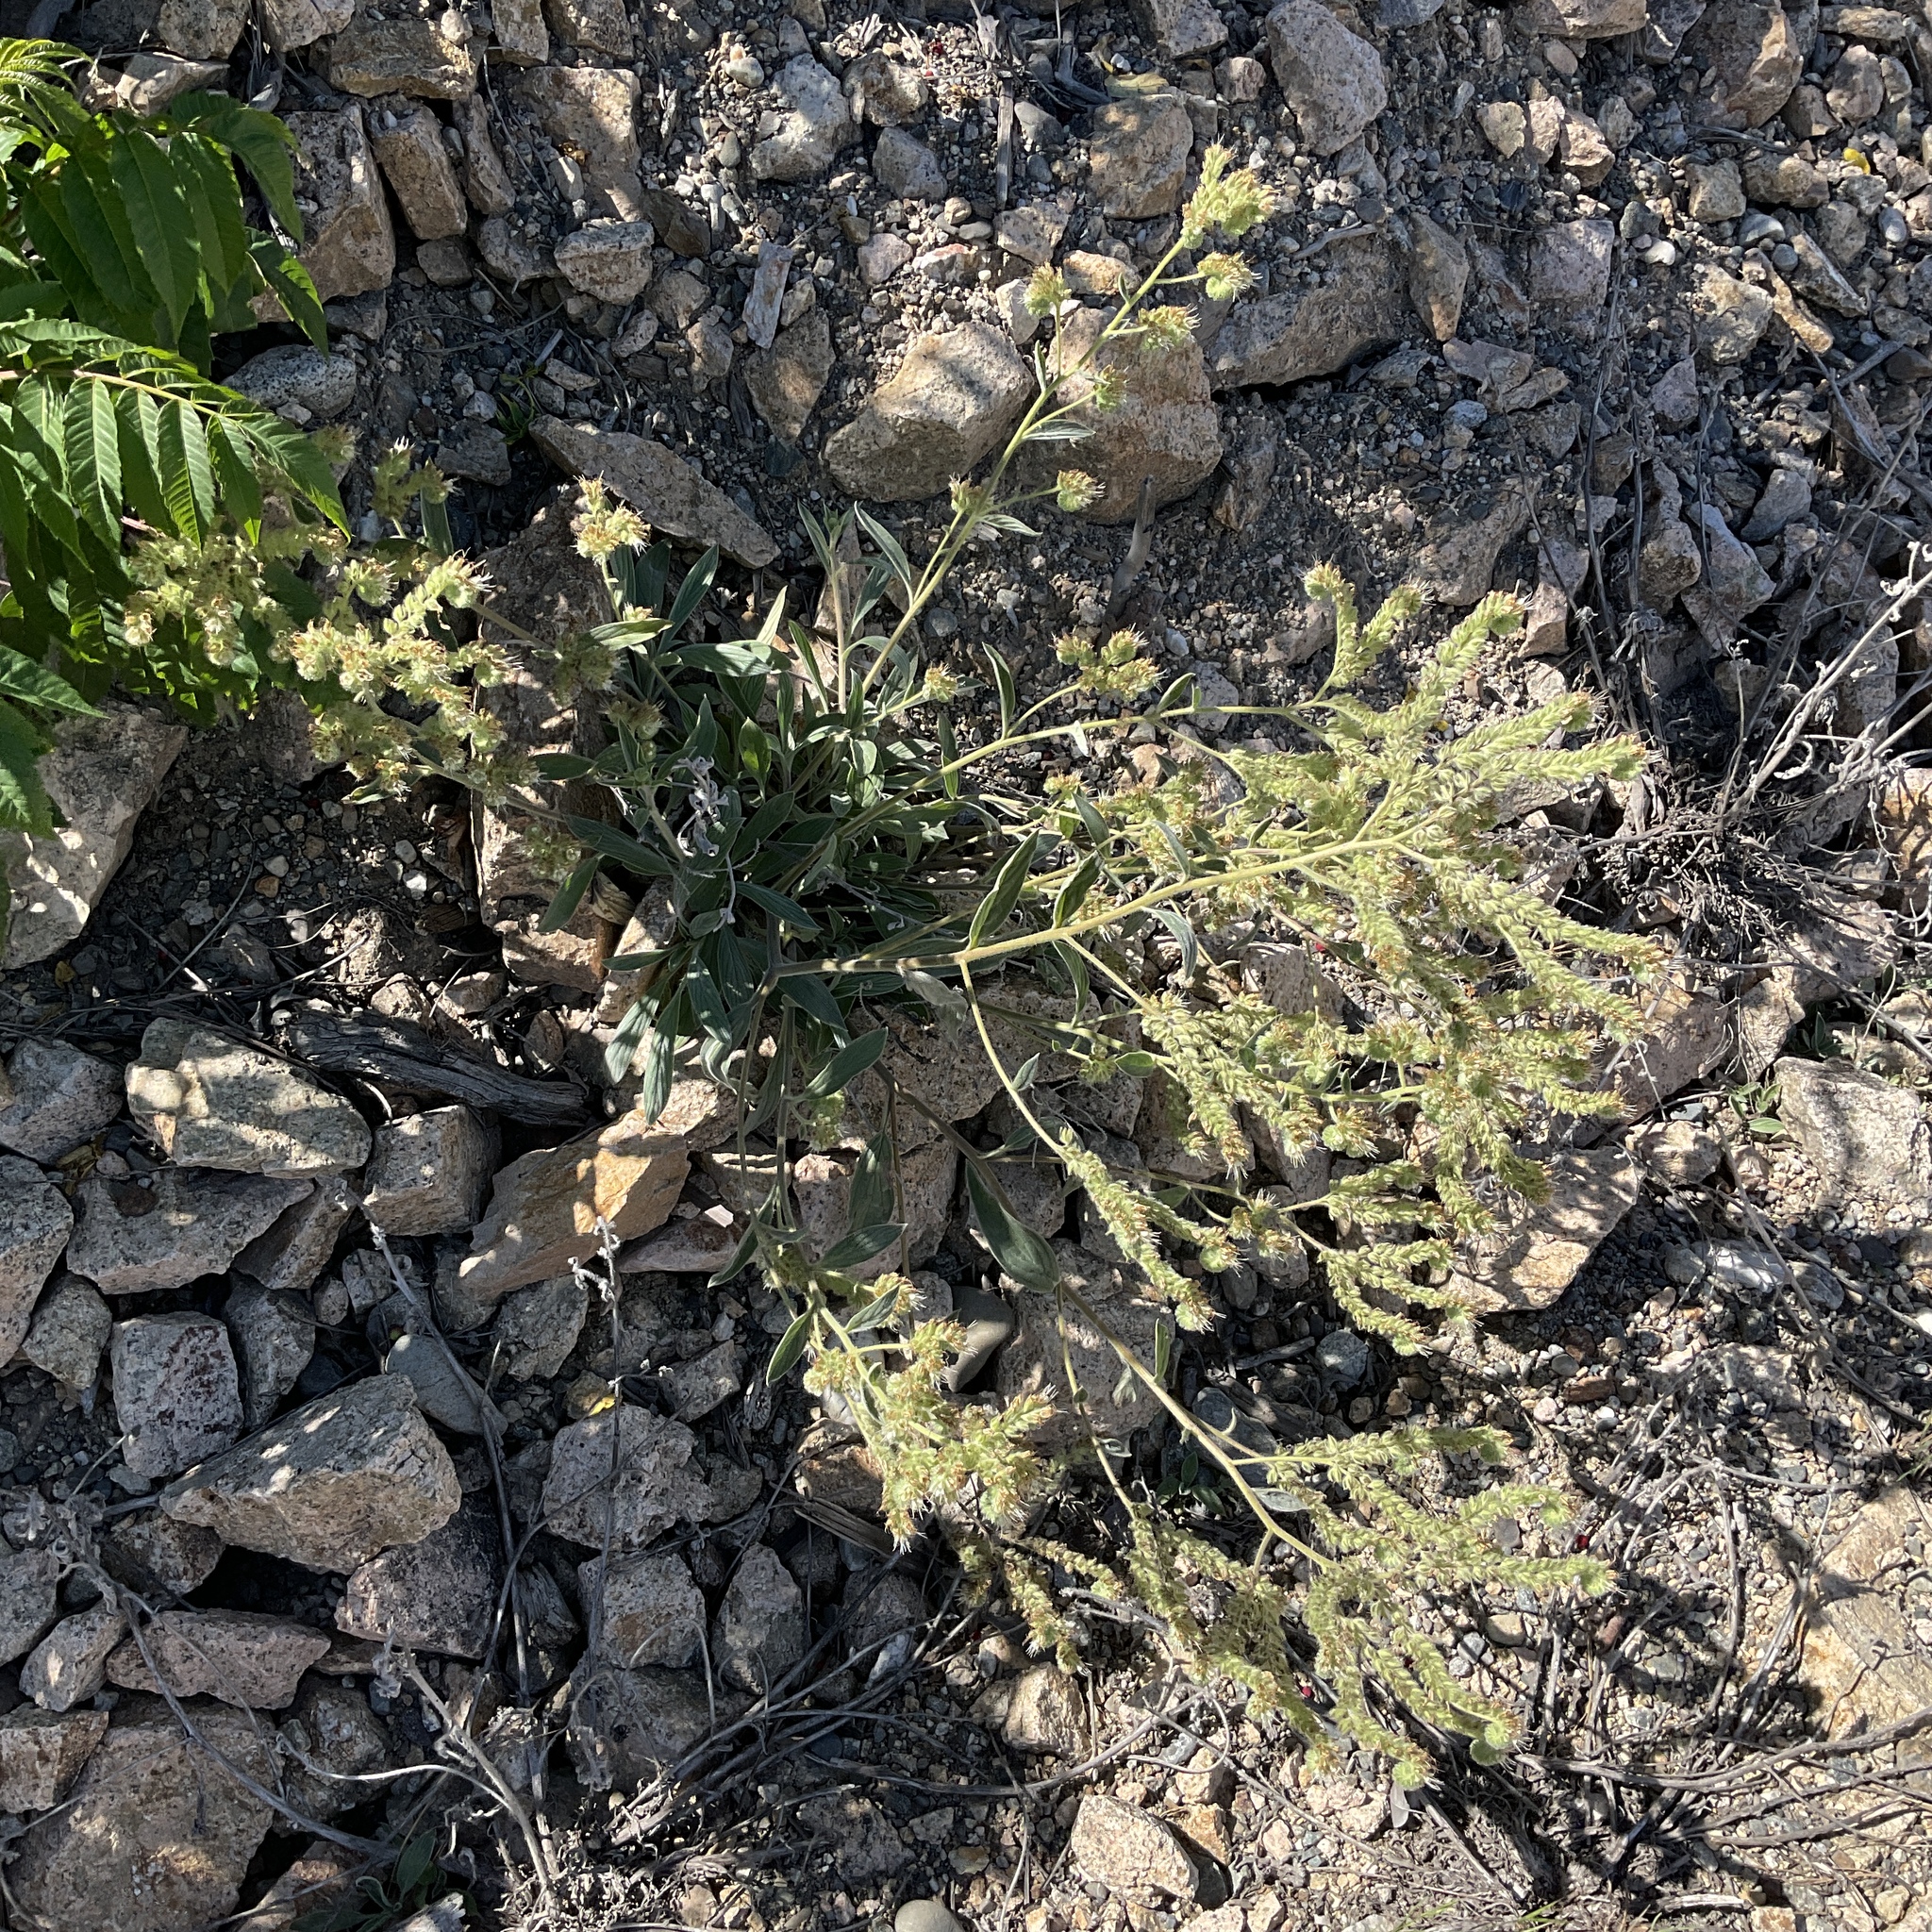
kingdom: Plantae
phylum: Tracheophyta
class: Magnoliopsida
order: Boraginales
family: Hydrophyllaceae
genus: Phacelia
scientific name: Phacelia hastata
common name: Silver-leaved phacelia
